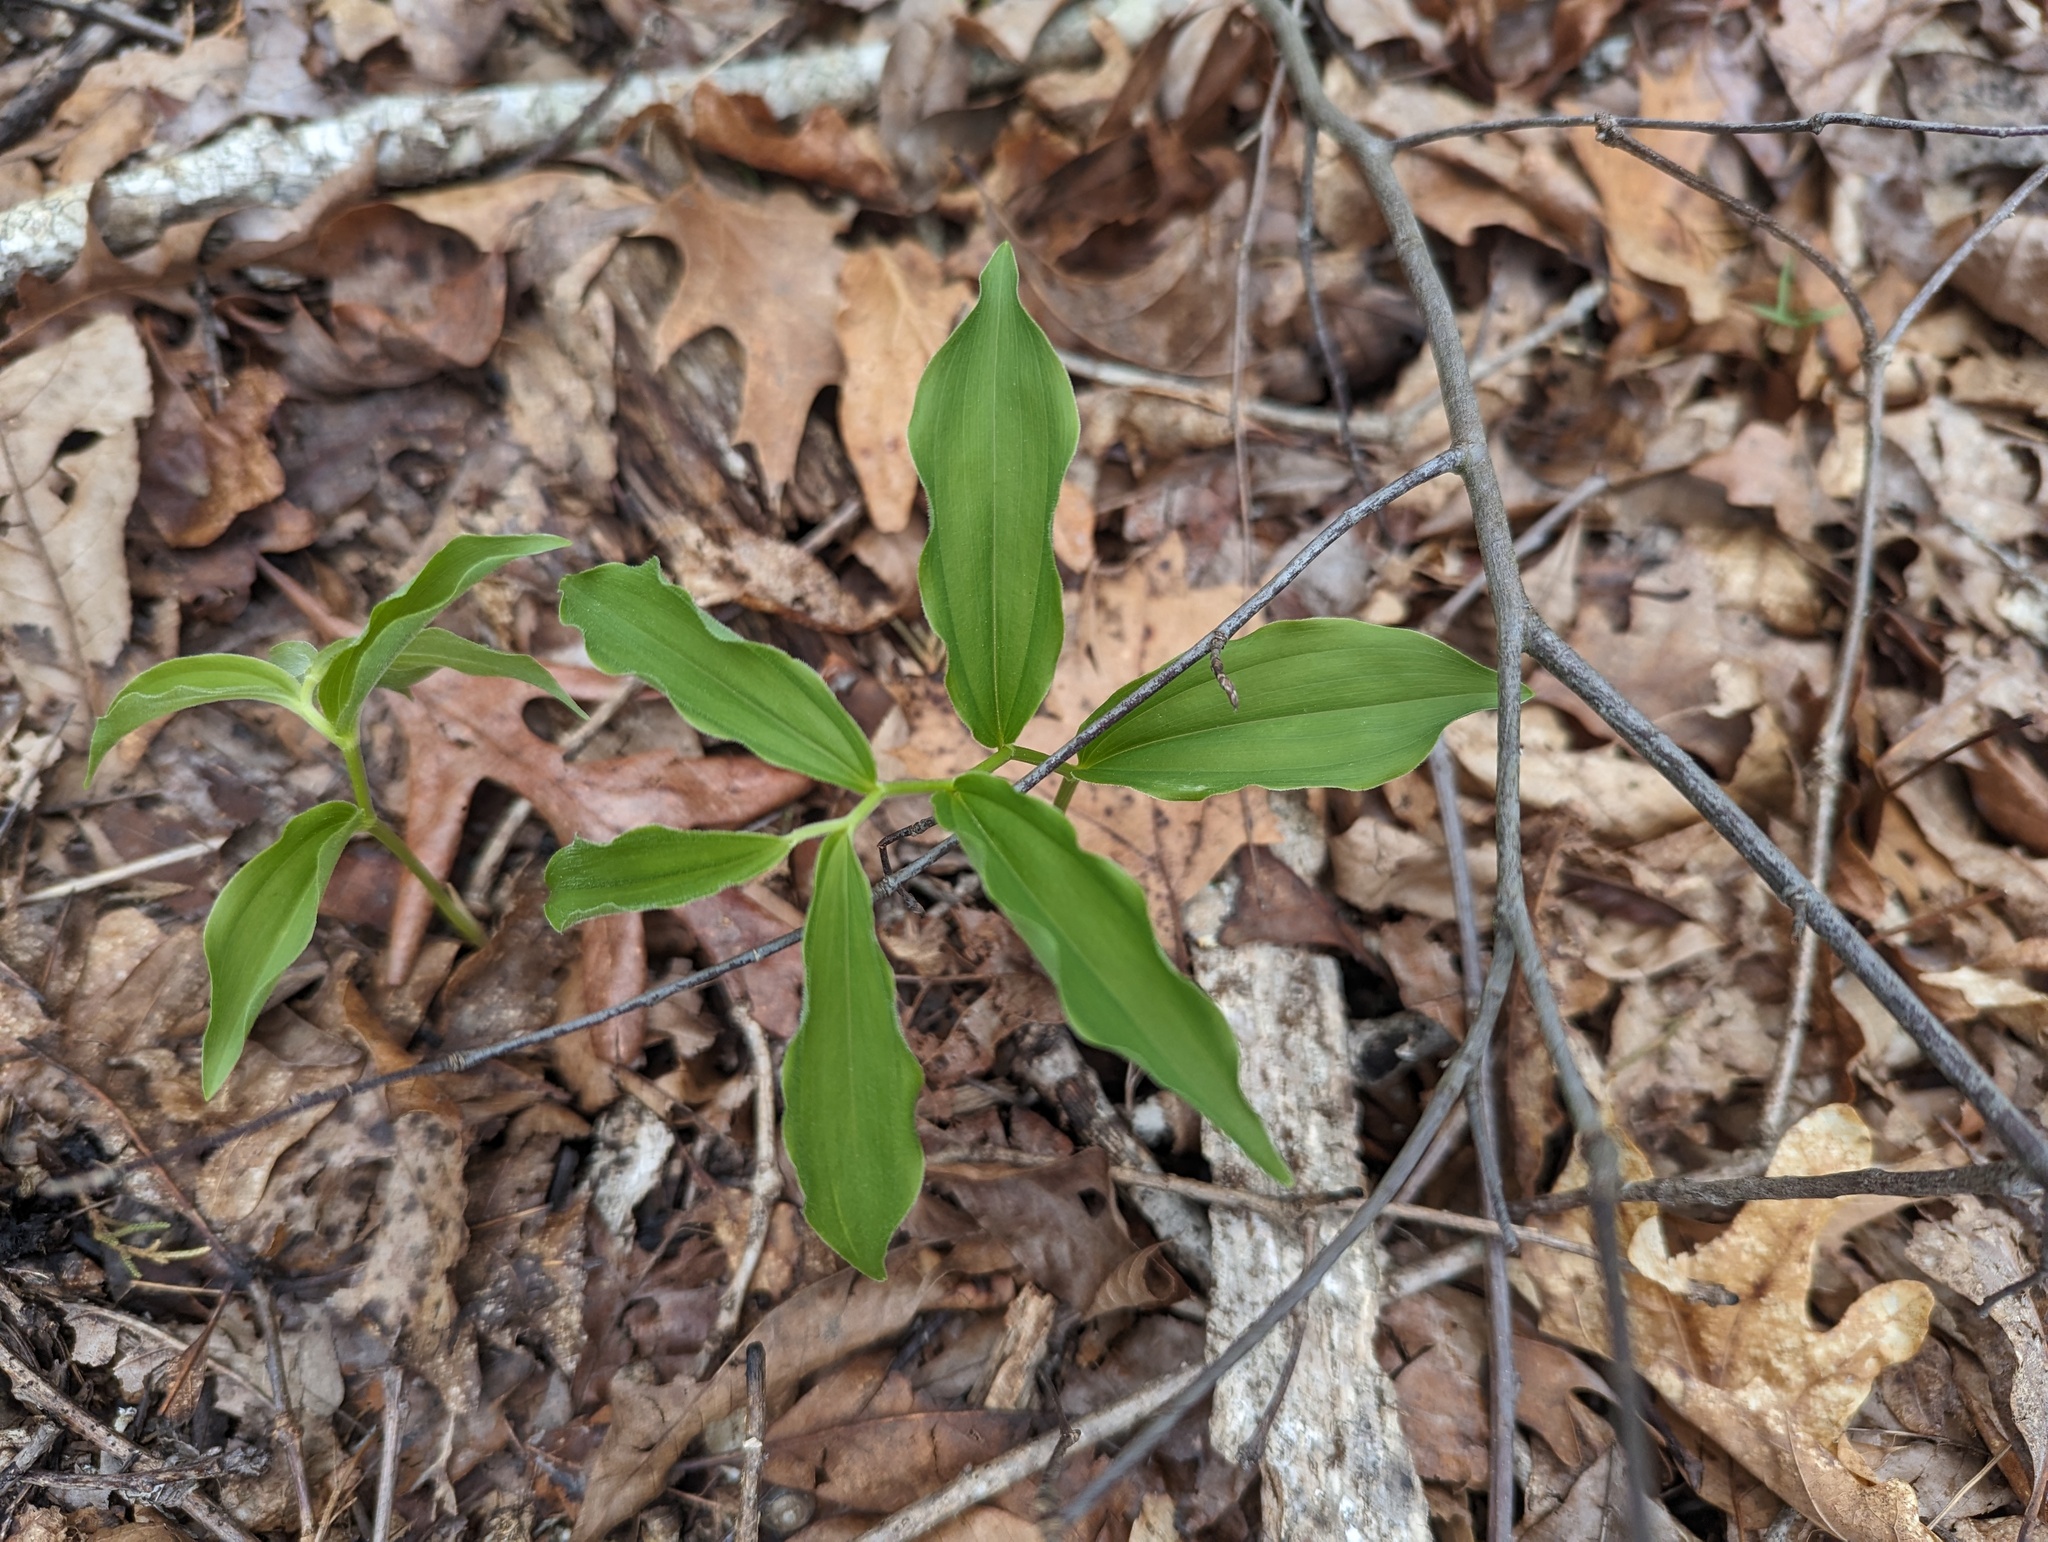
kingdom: Plantae
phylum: Tracheophyta
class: Liliopsida
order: Asparagales
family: Asparagaceae
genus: Maianthemum
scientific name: Maianthemum racemosum
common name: False spikenard
